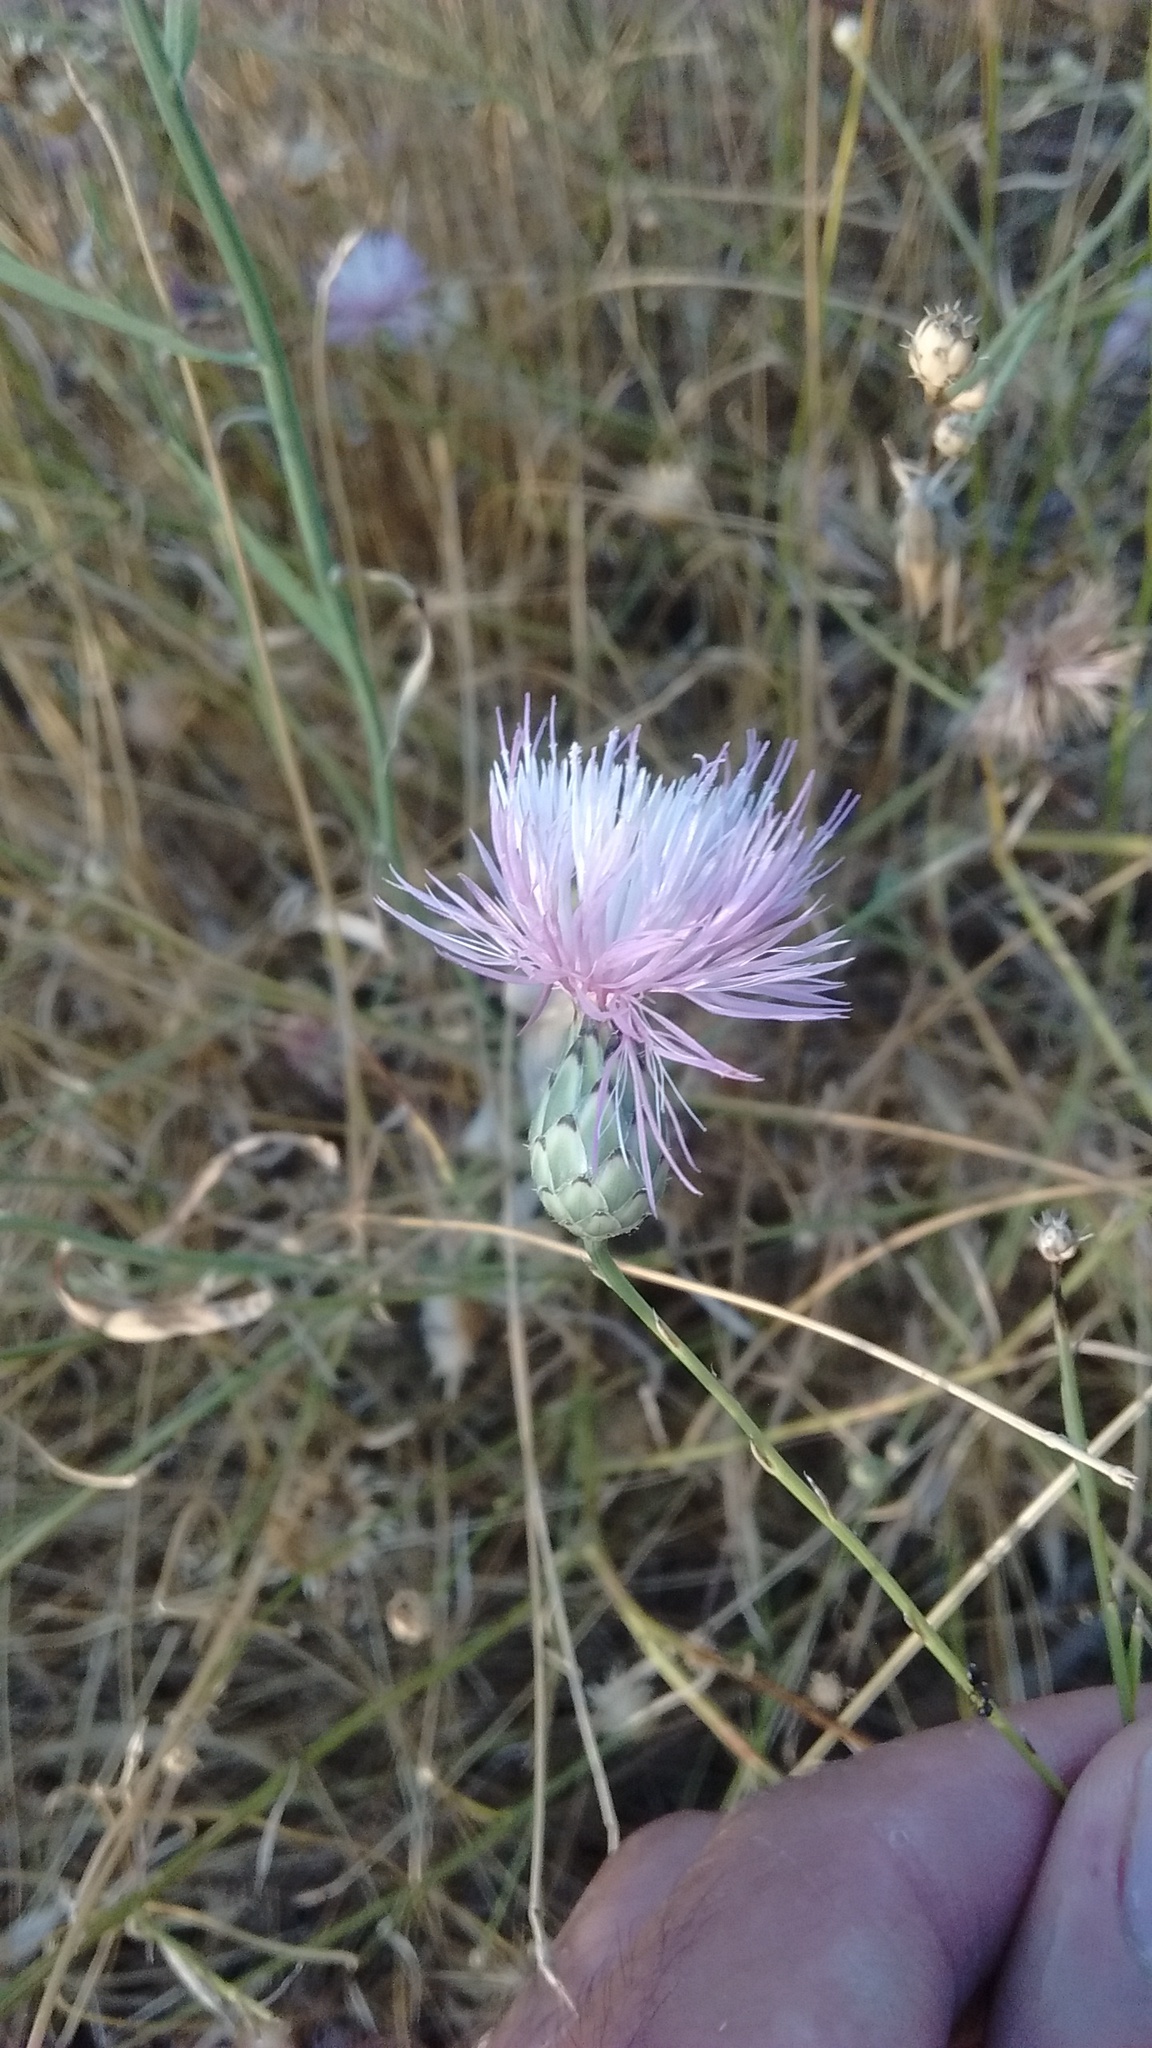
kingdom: Plantae
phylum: Tracheophyta
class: Magnoliopsida
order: Asterales
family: Asteraceae
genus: Mantisalca
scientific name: Mantisalca salmantica
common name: Dagger flower
